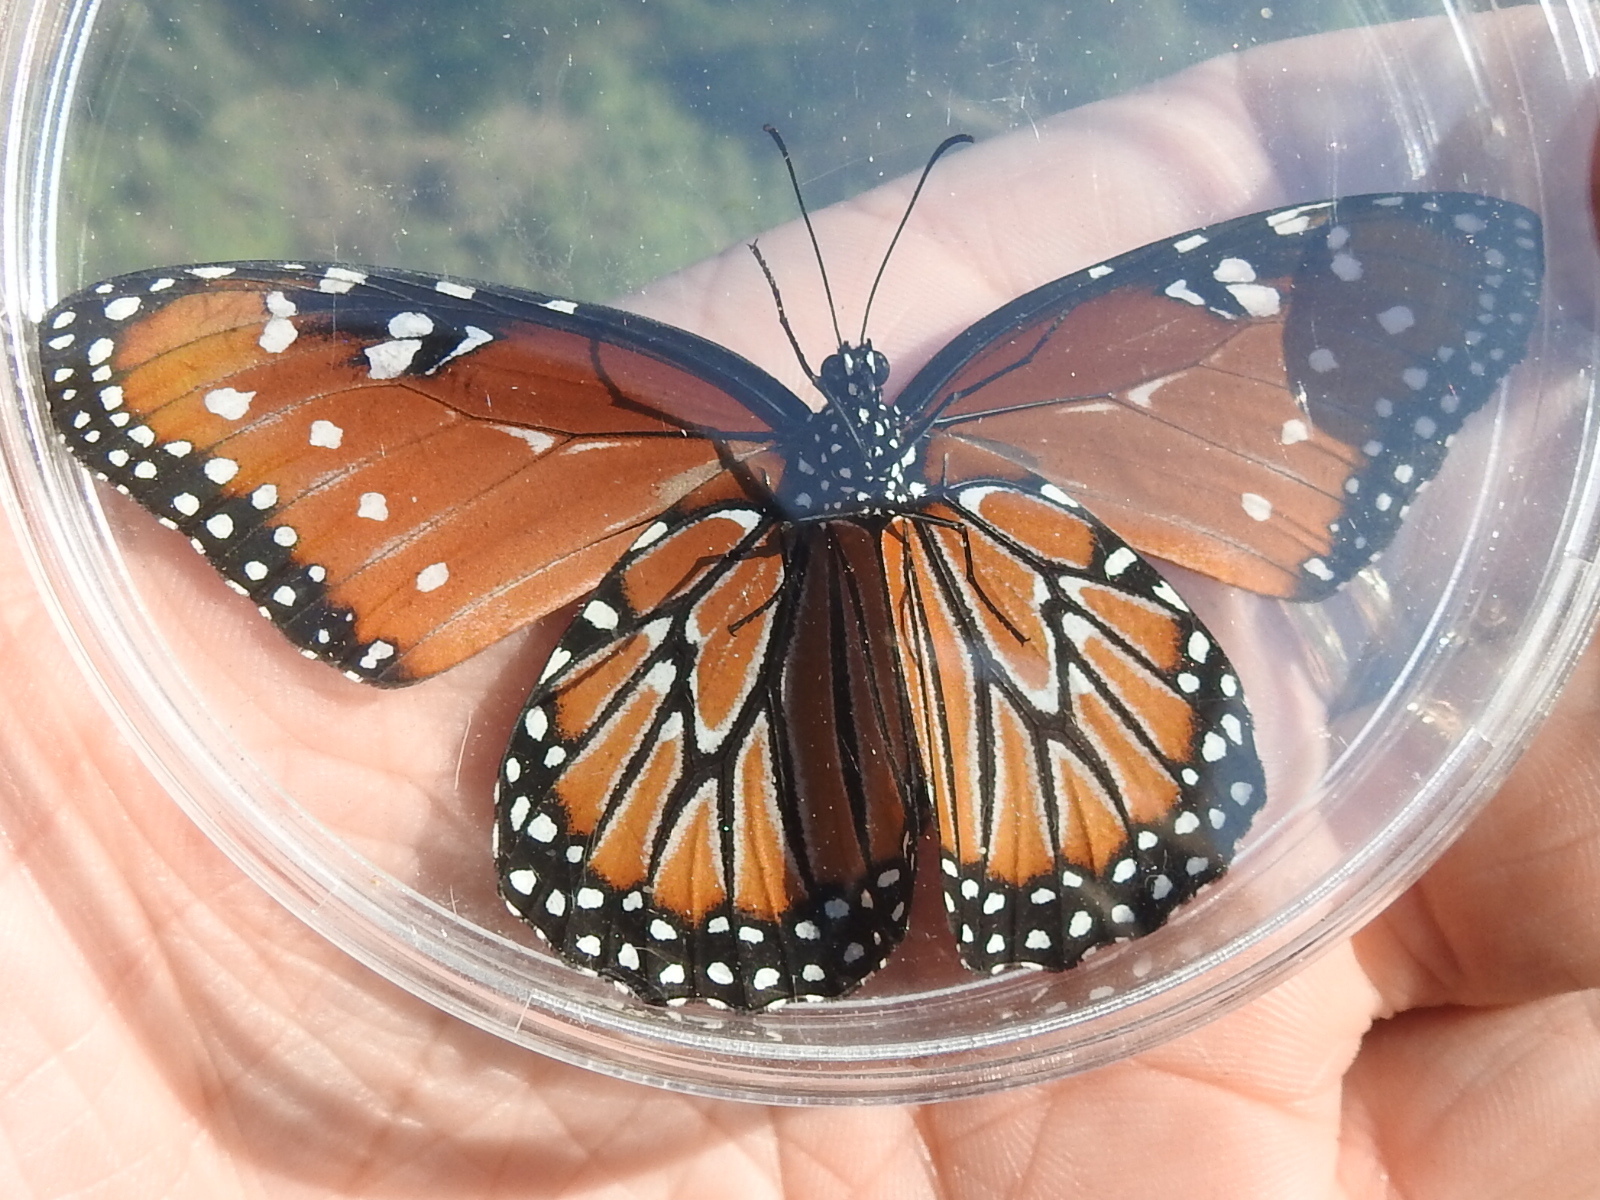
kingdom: Animalia
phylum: Arthropoda
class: Insecta
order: Lepidoptera
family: Nymphalidae
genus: Danaus
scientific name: Danaus gilippus
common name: Queen
